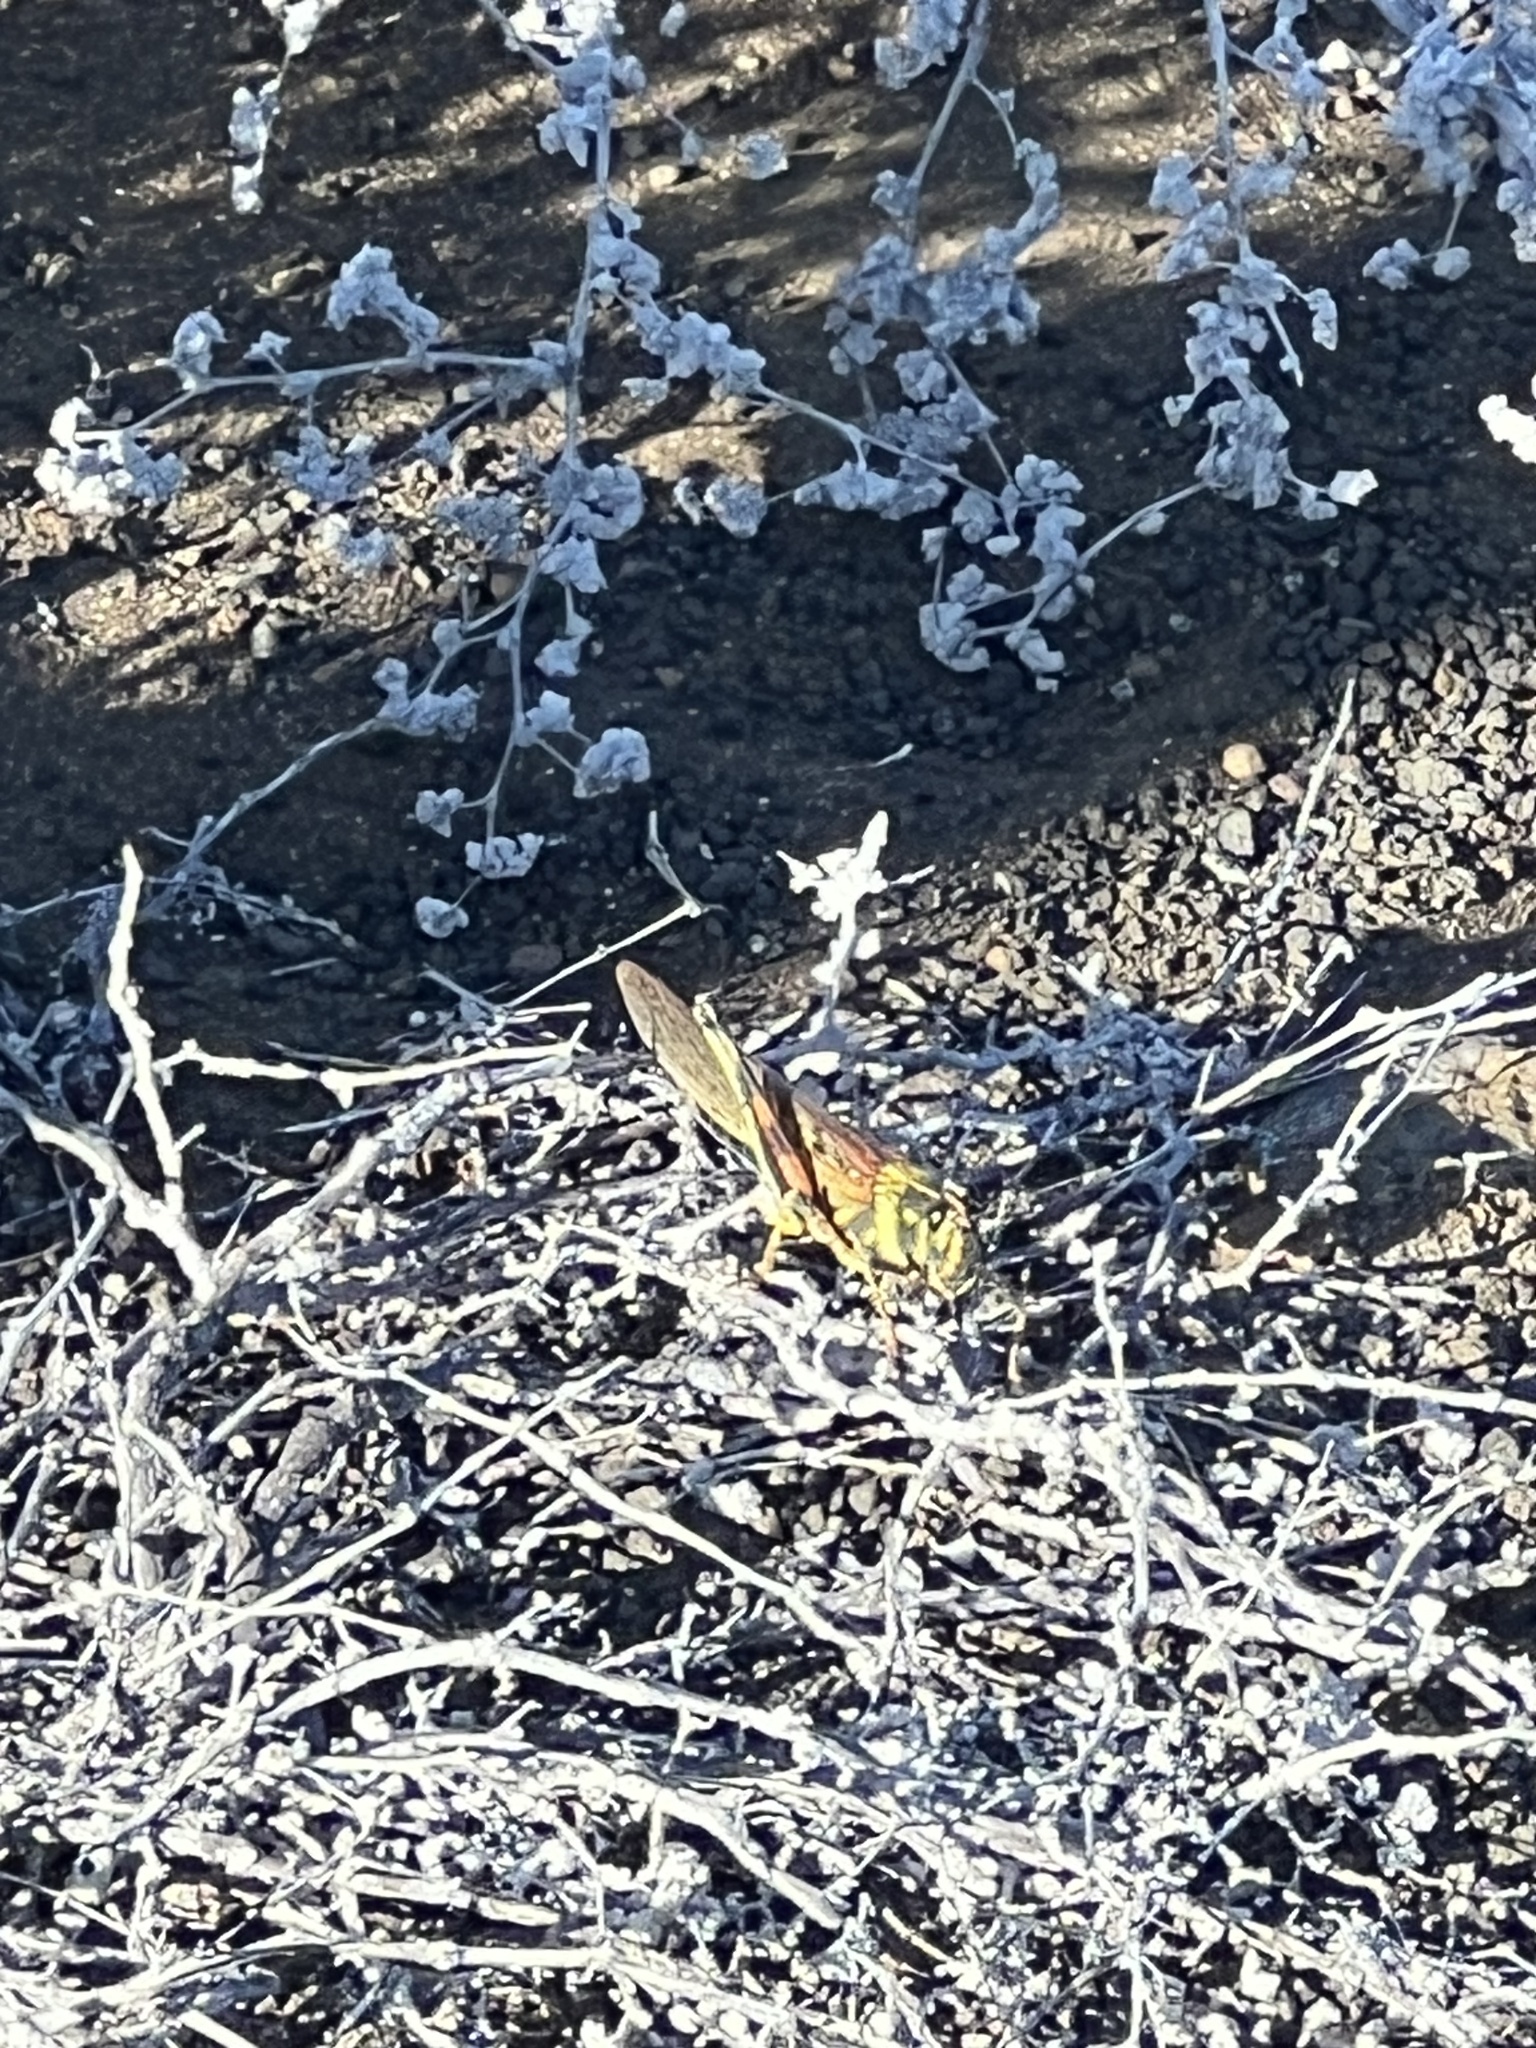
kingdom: Animalia
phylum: Arthropoda
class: Insecta
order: Orthoptera
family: Acrididae
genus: Schistocerca
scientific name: Schistocerca melanocera
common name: Large painted locust
